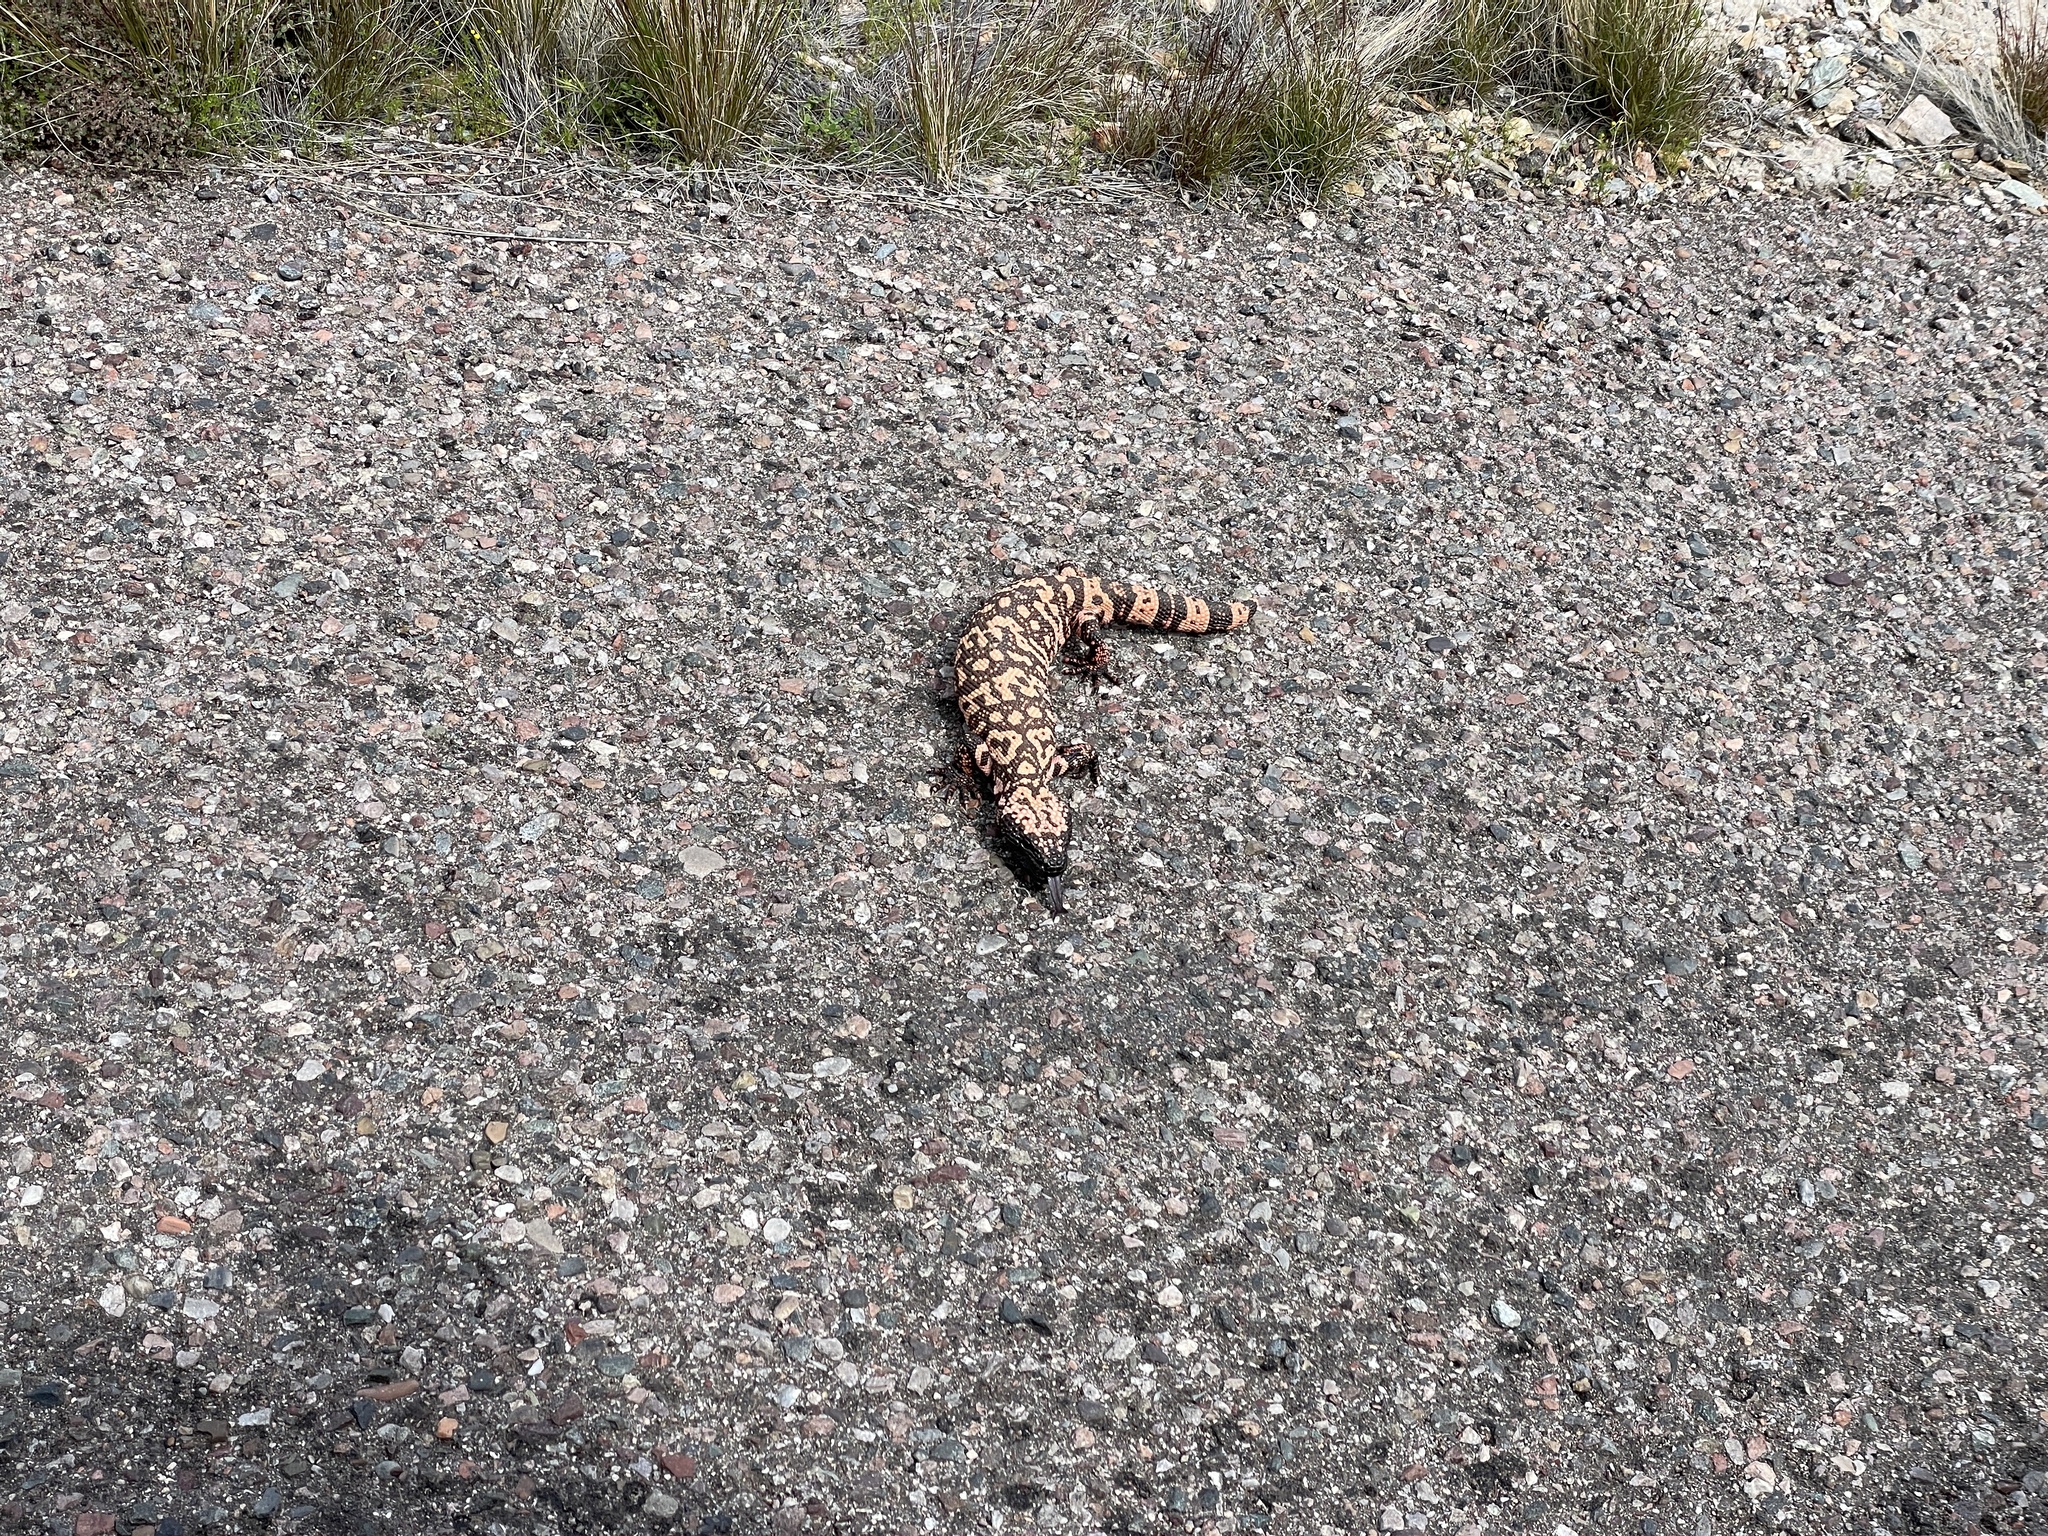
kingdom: Animalia
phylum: Chordata
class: Squamata
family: Helodermatidae
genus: Heloderma
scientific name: Heloderma suspectum
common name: Gila monster
